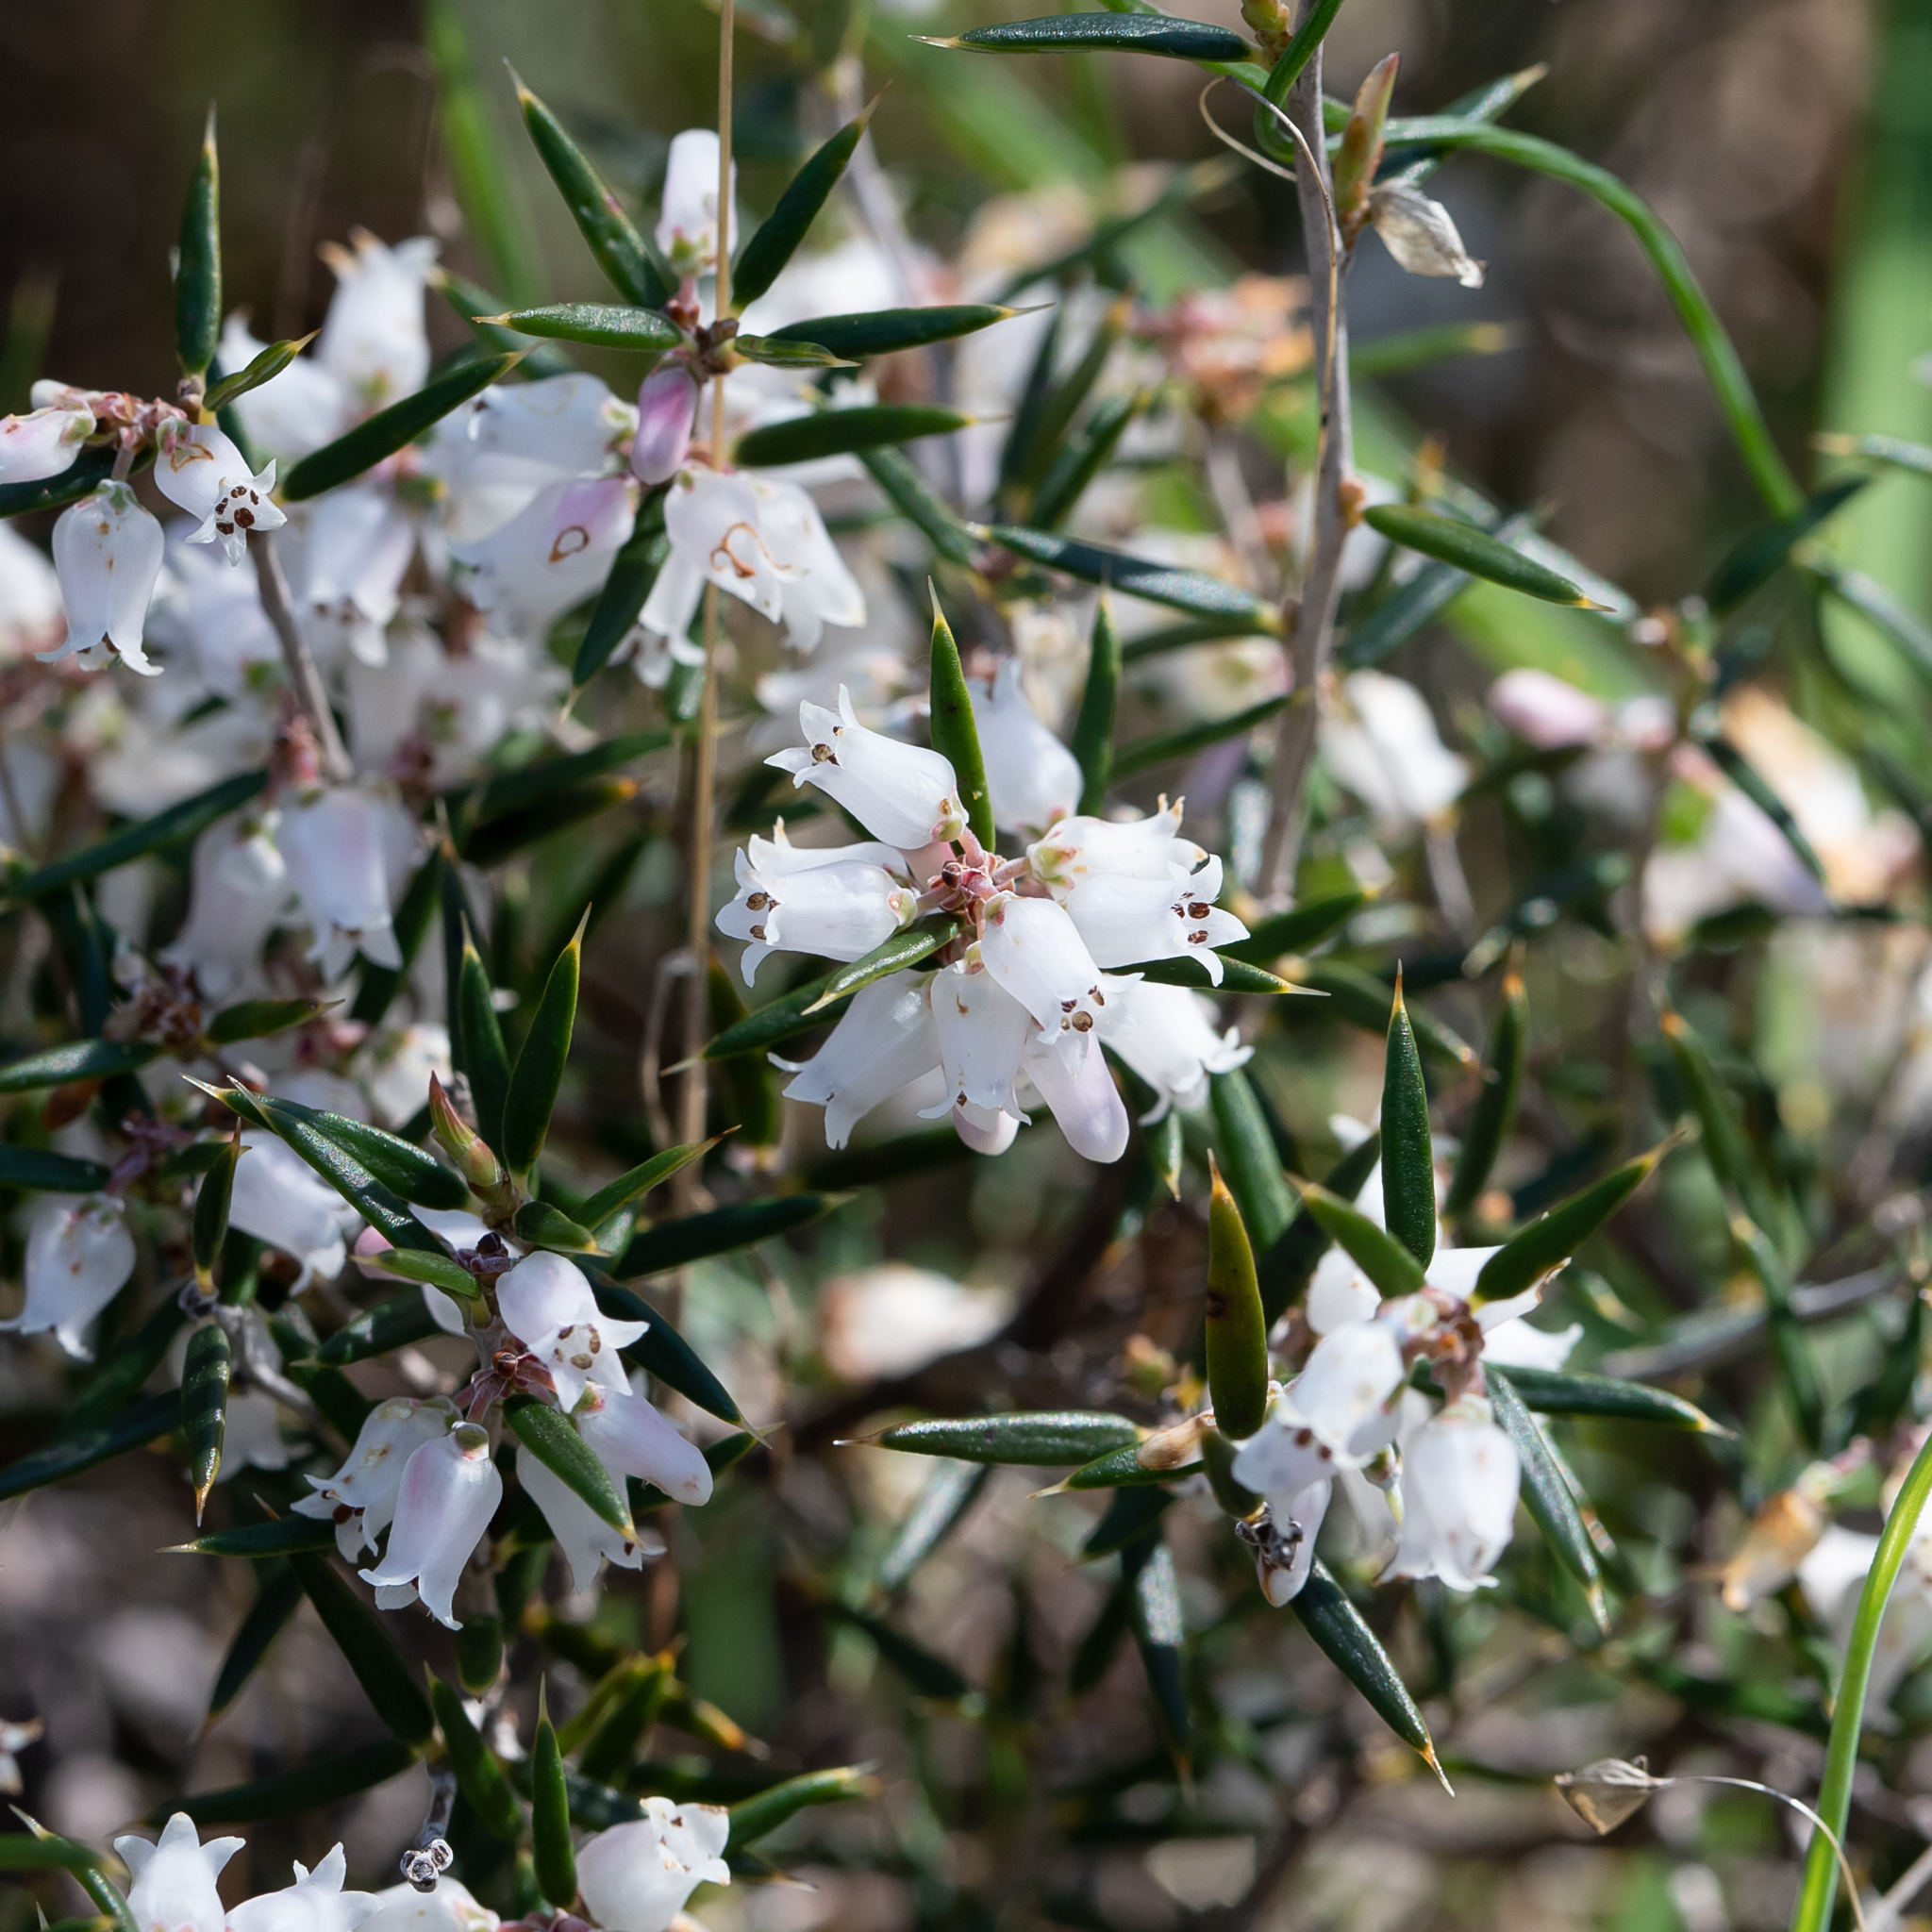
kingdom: Plantae
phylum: Tracheophyta
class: Magnoliopsida
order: Ericales
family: Ericaceae
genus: Lissanthe
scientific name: Lissanthe strigosa
